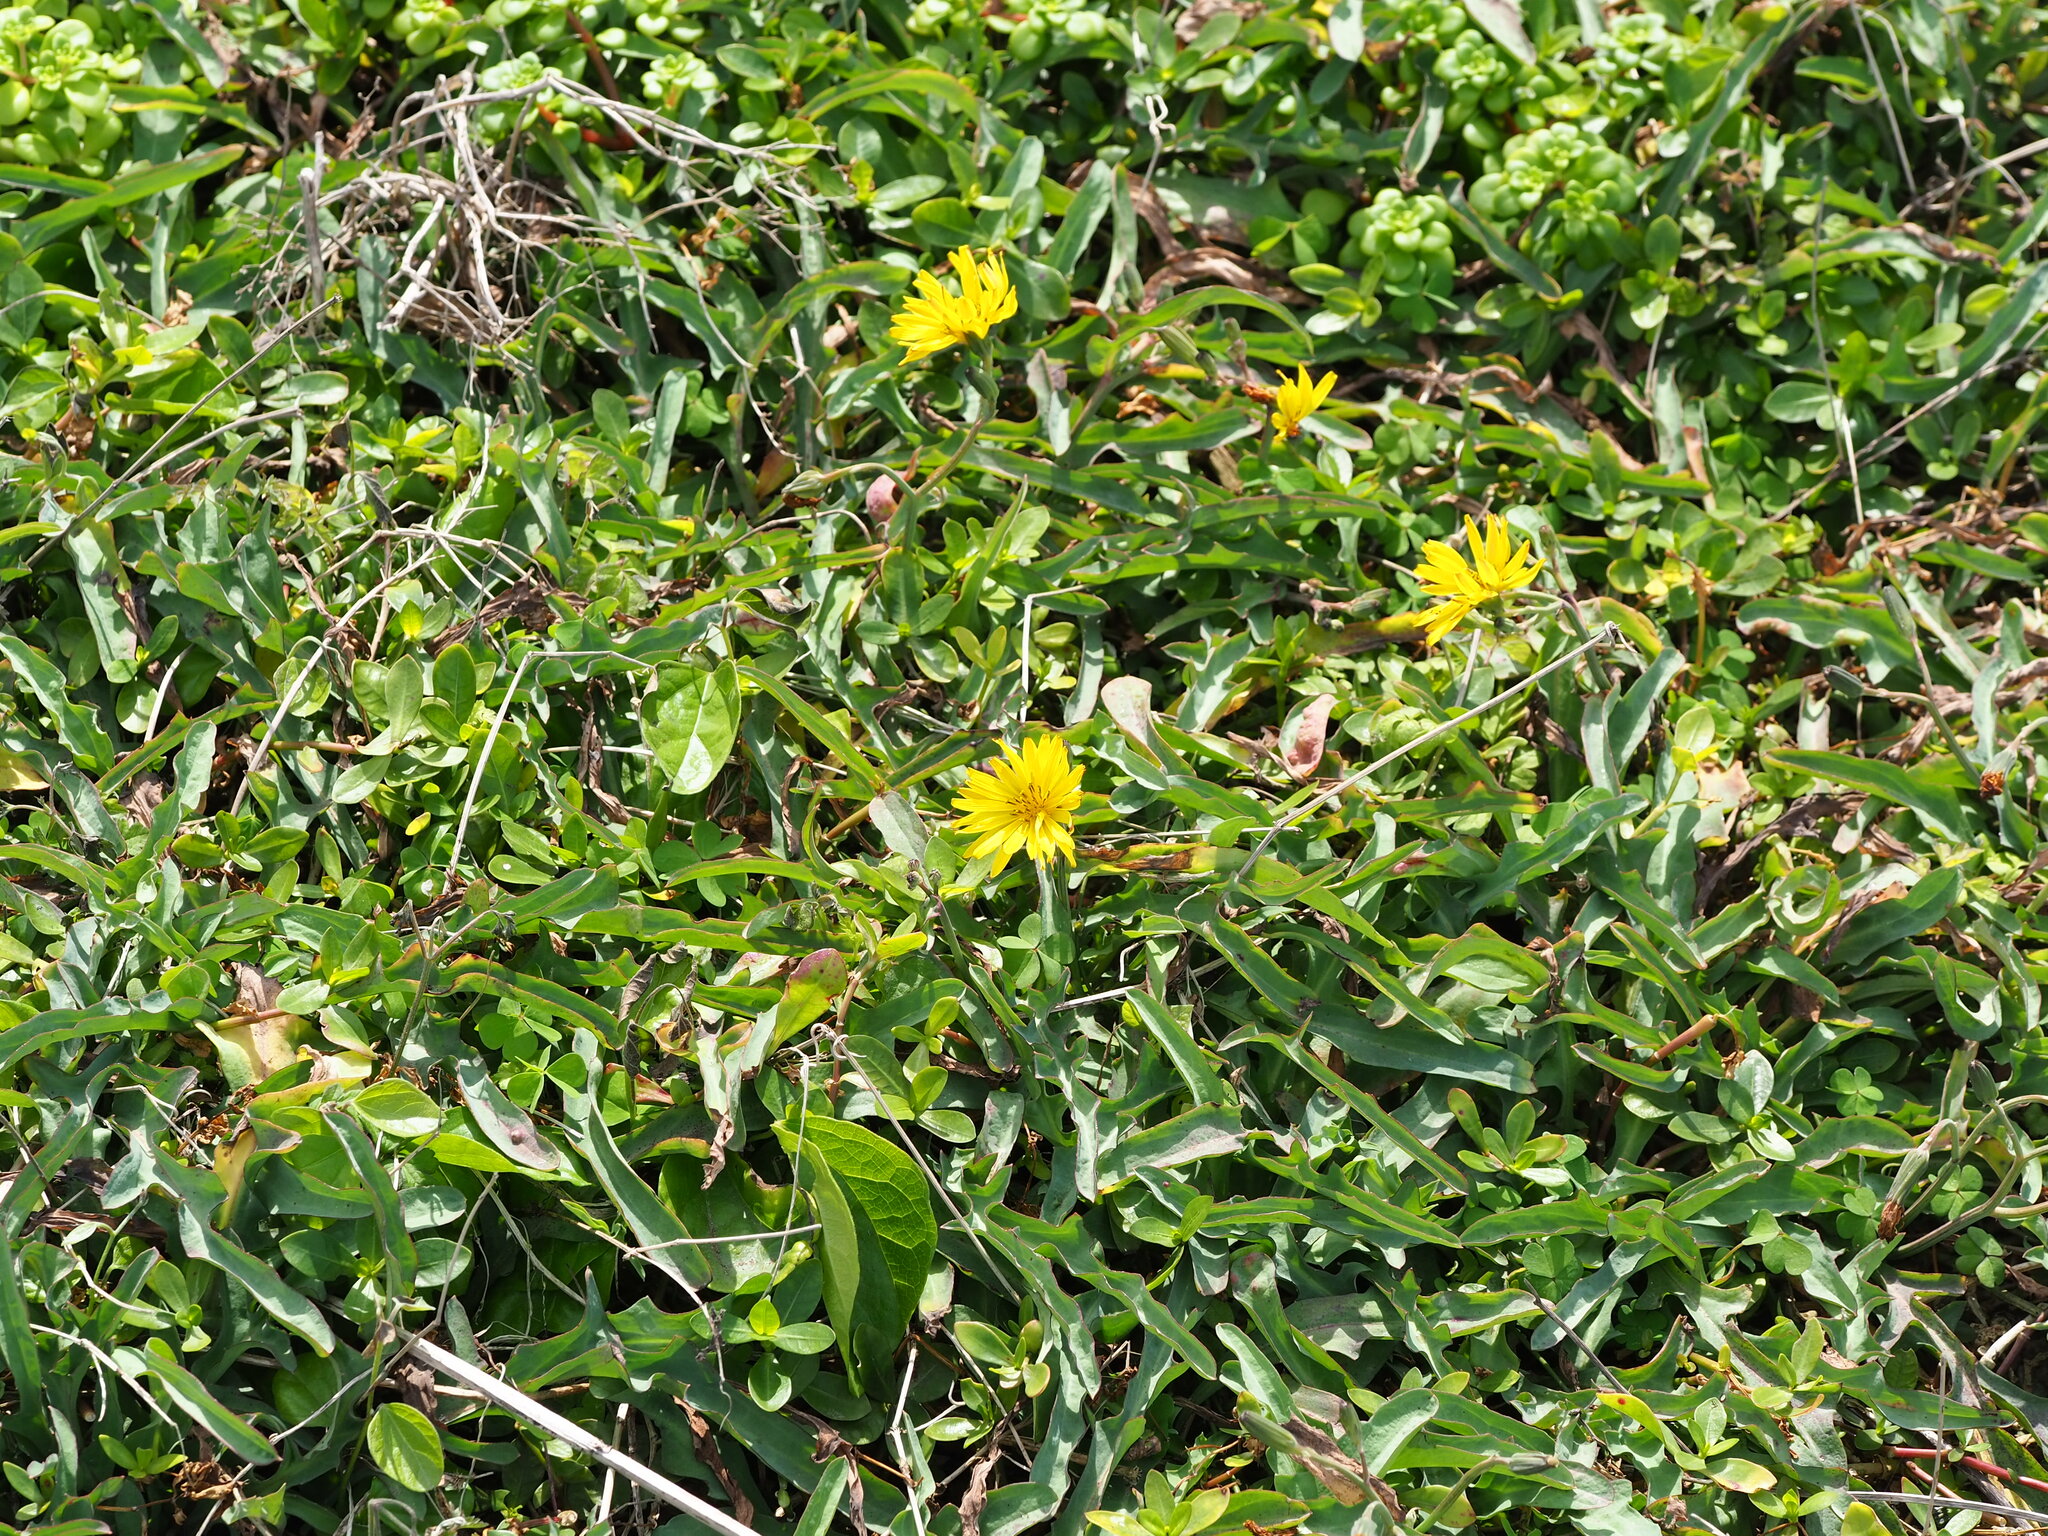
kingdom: Plantae
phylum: Tracheophyta
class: Magnoliopsida
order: Asterales
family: Asteraceae
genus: Ixeris
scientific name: Ixeris japonica
